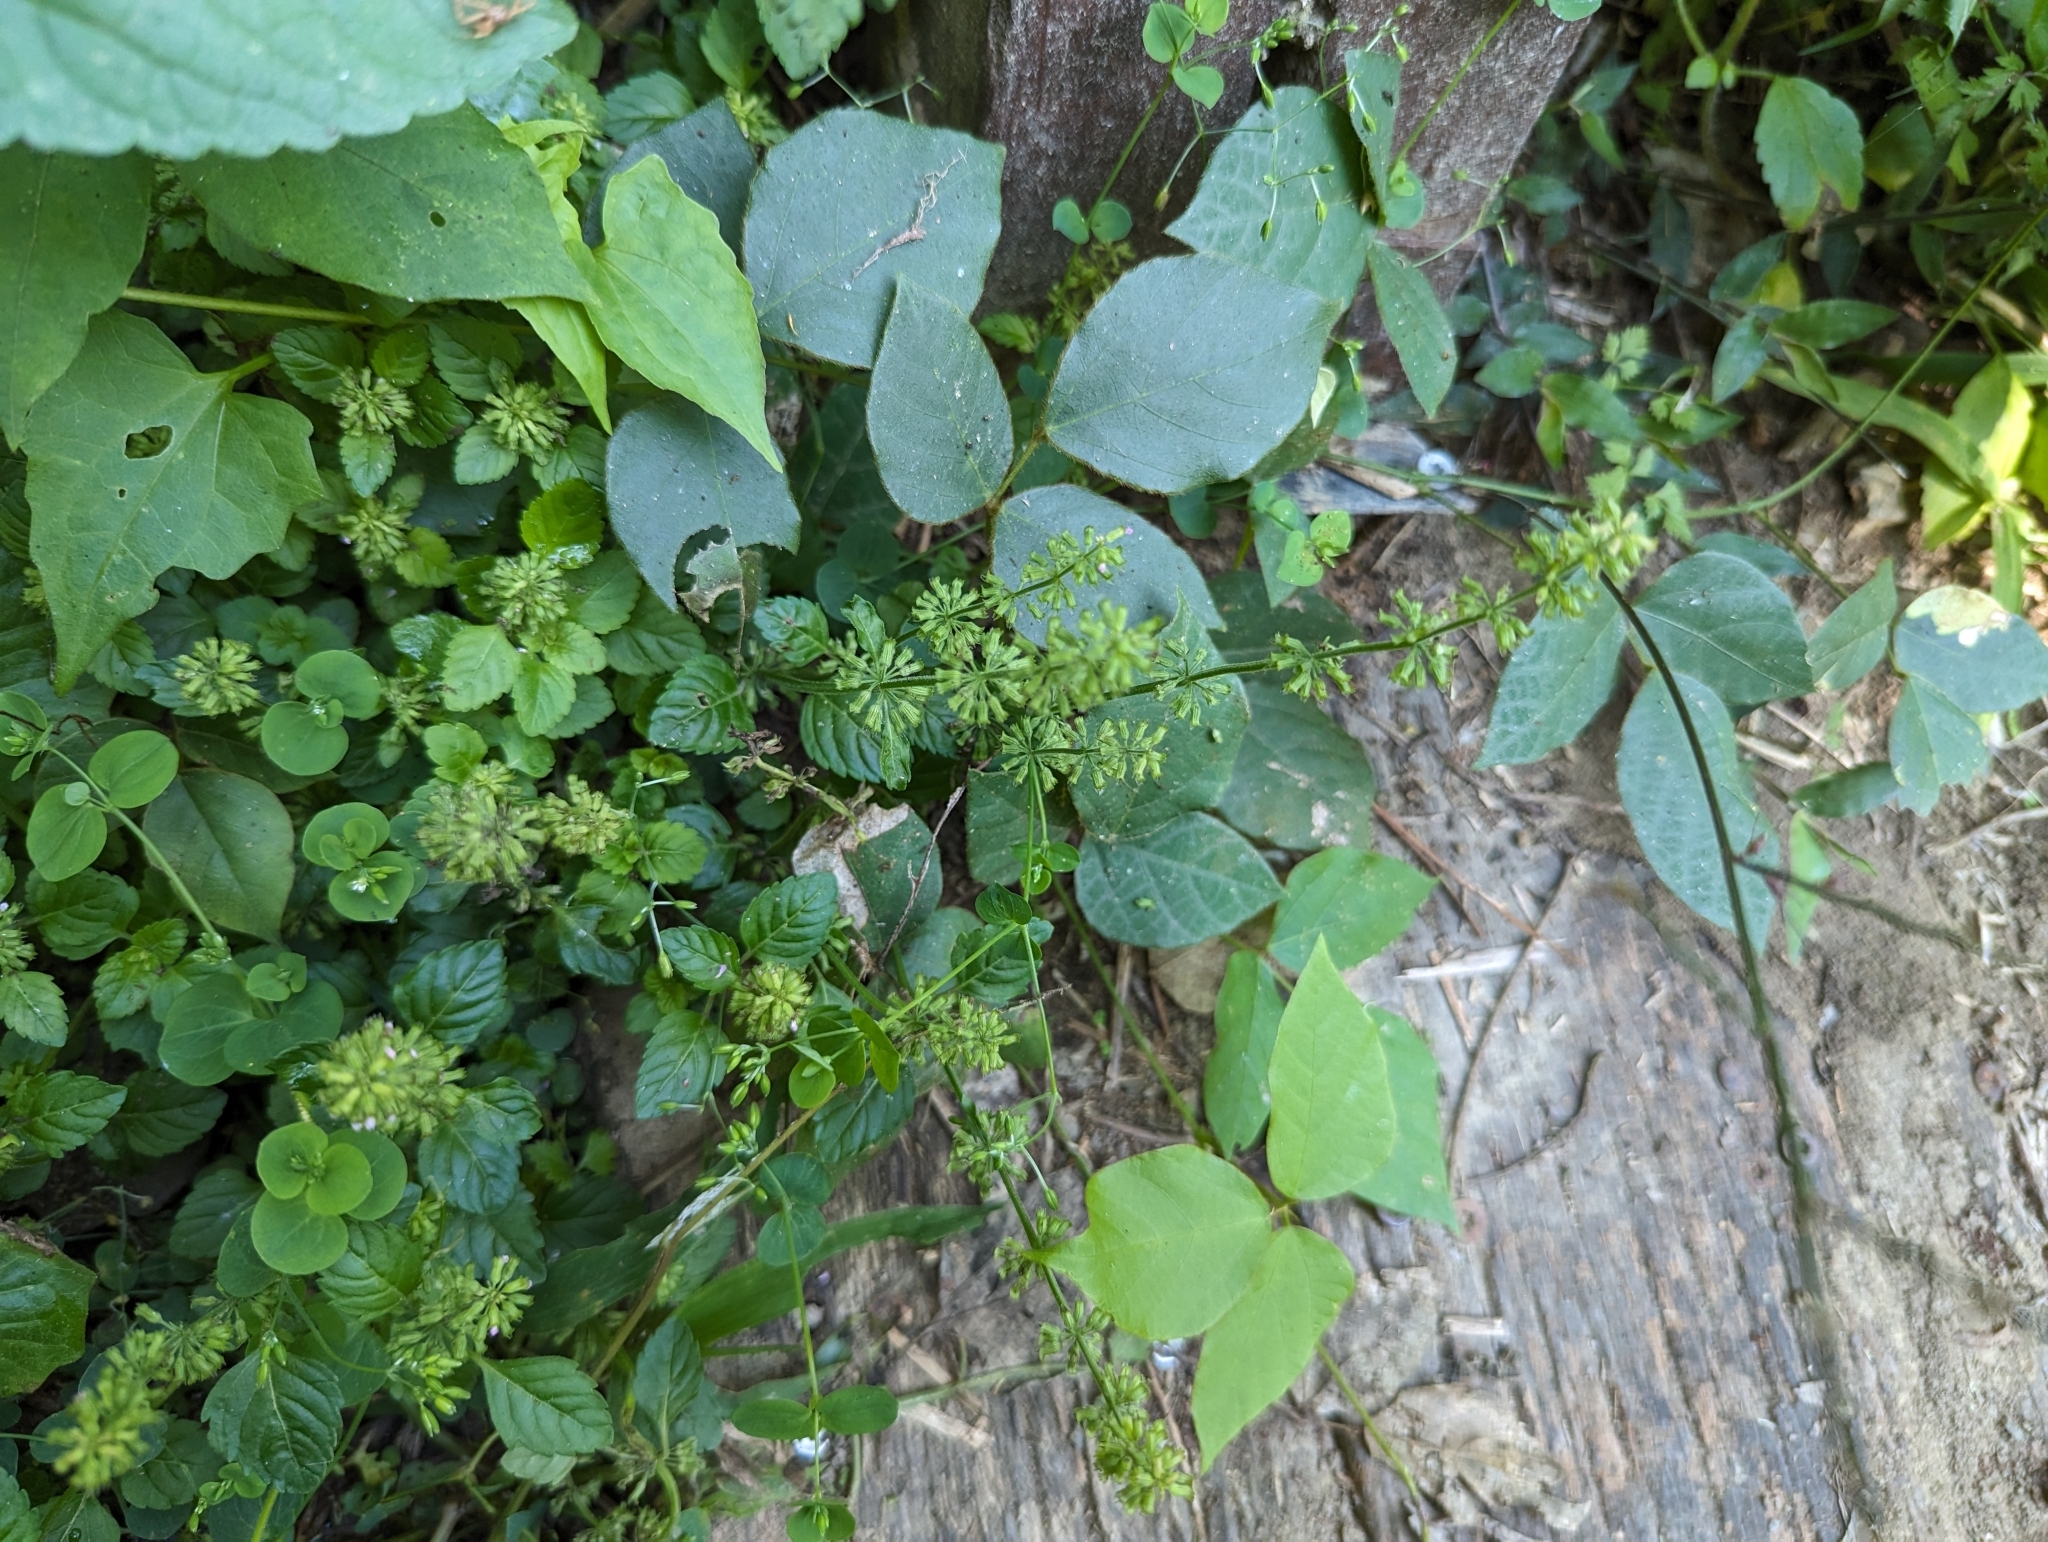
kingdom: Plantae
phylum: Tracheophyta
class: Magnoliopsida
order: Lamiales
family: Lamiaceae
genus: Clinopodium
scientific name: Clinopodium gracile
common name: Slender wild basil
